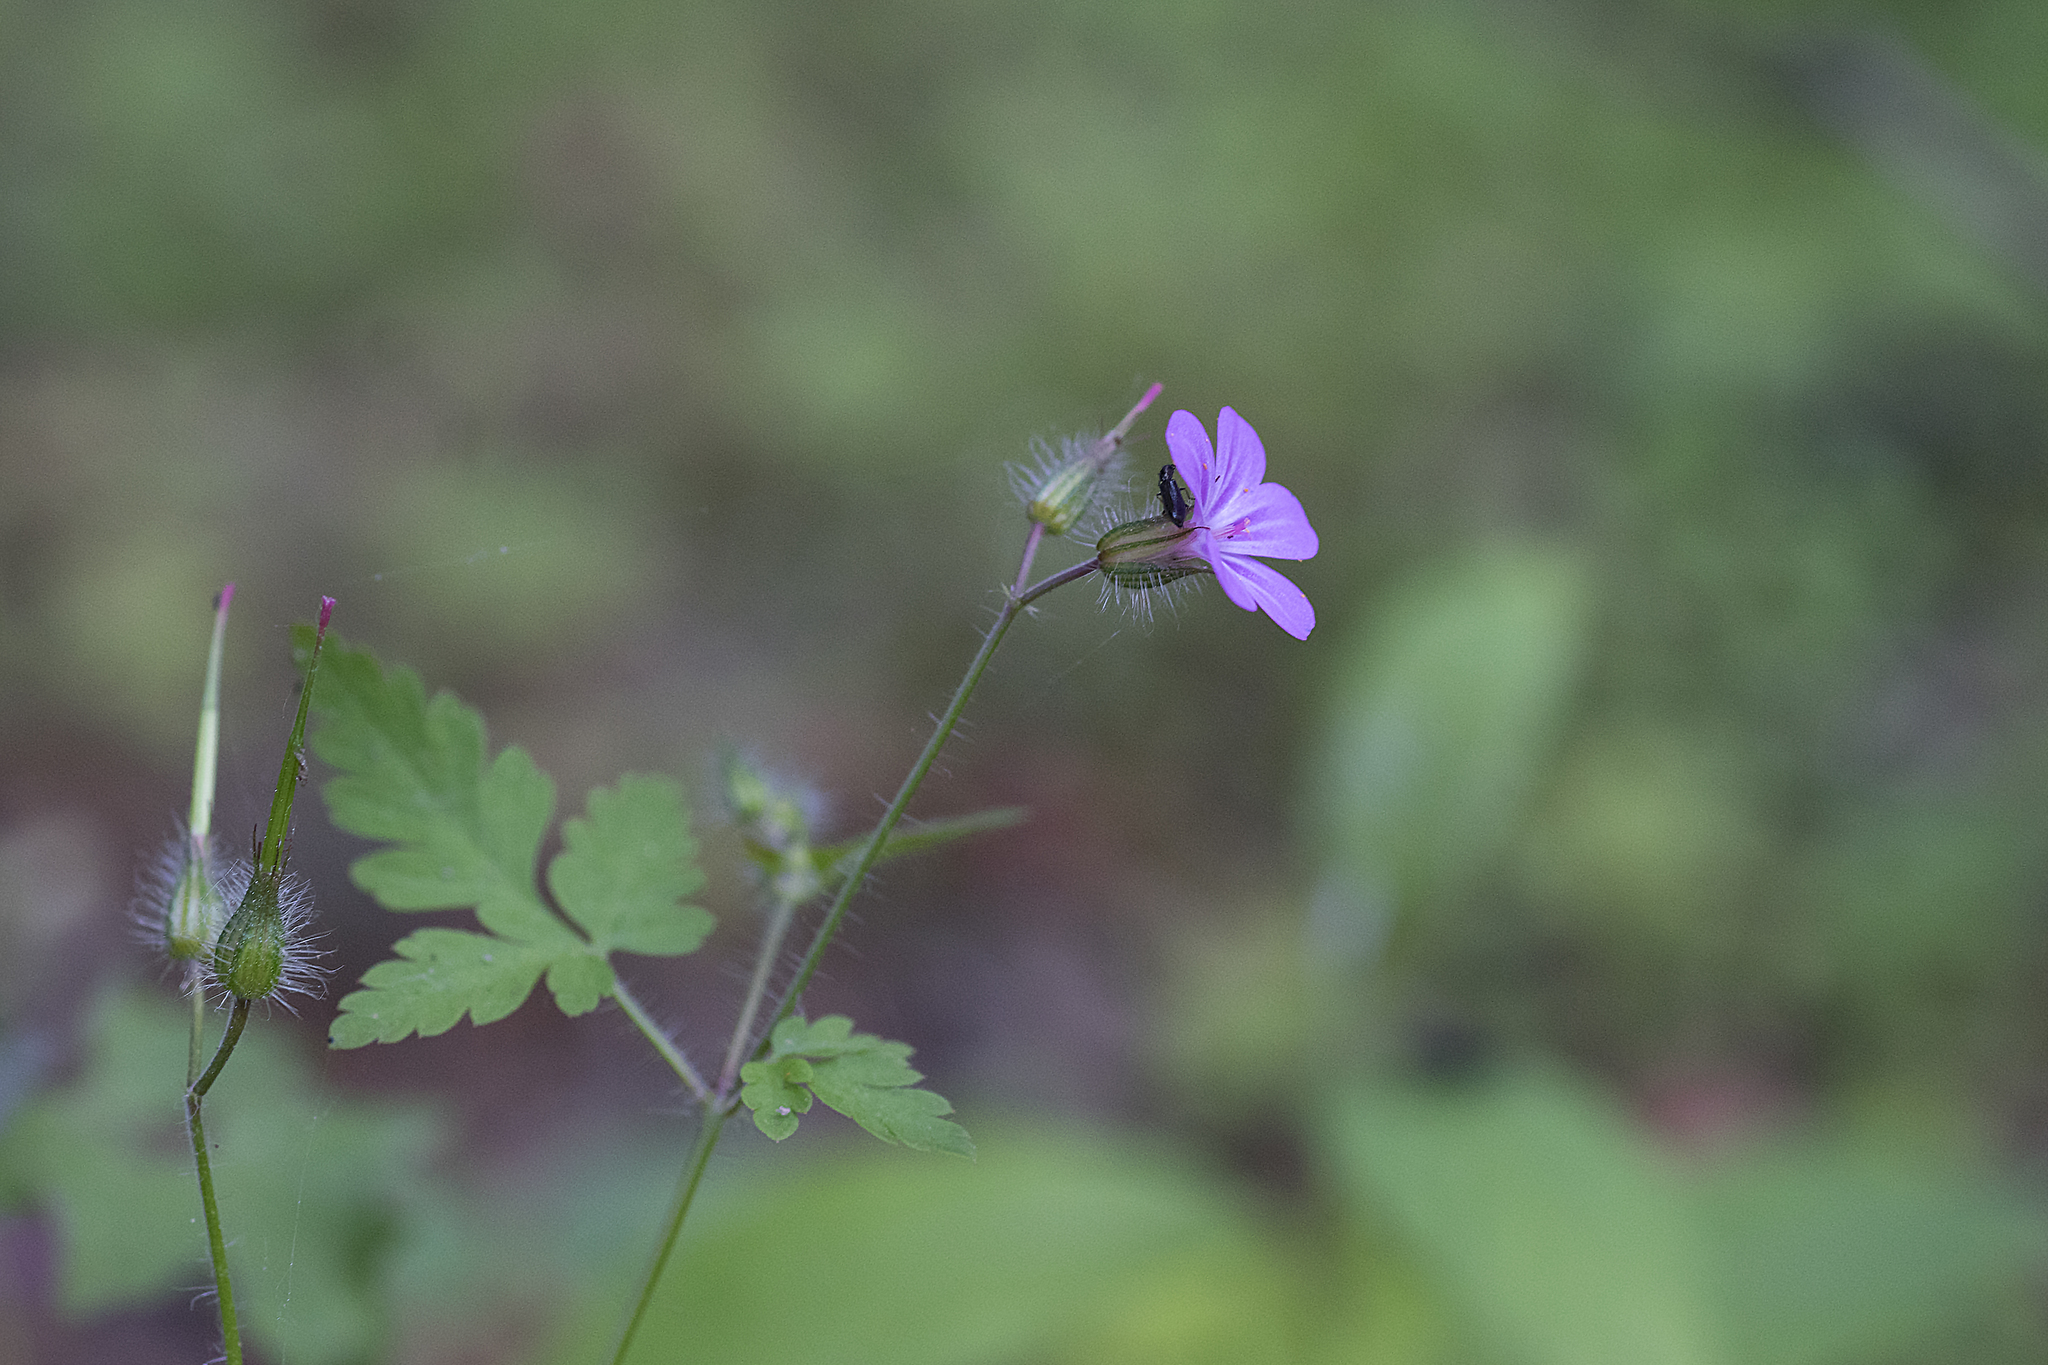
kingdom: Plantae
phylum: Tracheophyta
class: Magnoliopsida
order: Geraniales
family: Geraniaceae
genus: Geranium
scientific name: Geranium robertianum
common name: Herb-robert
